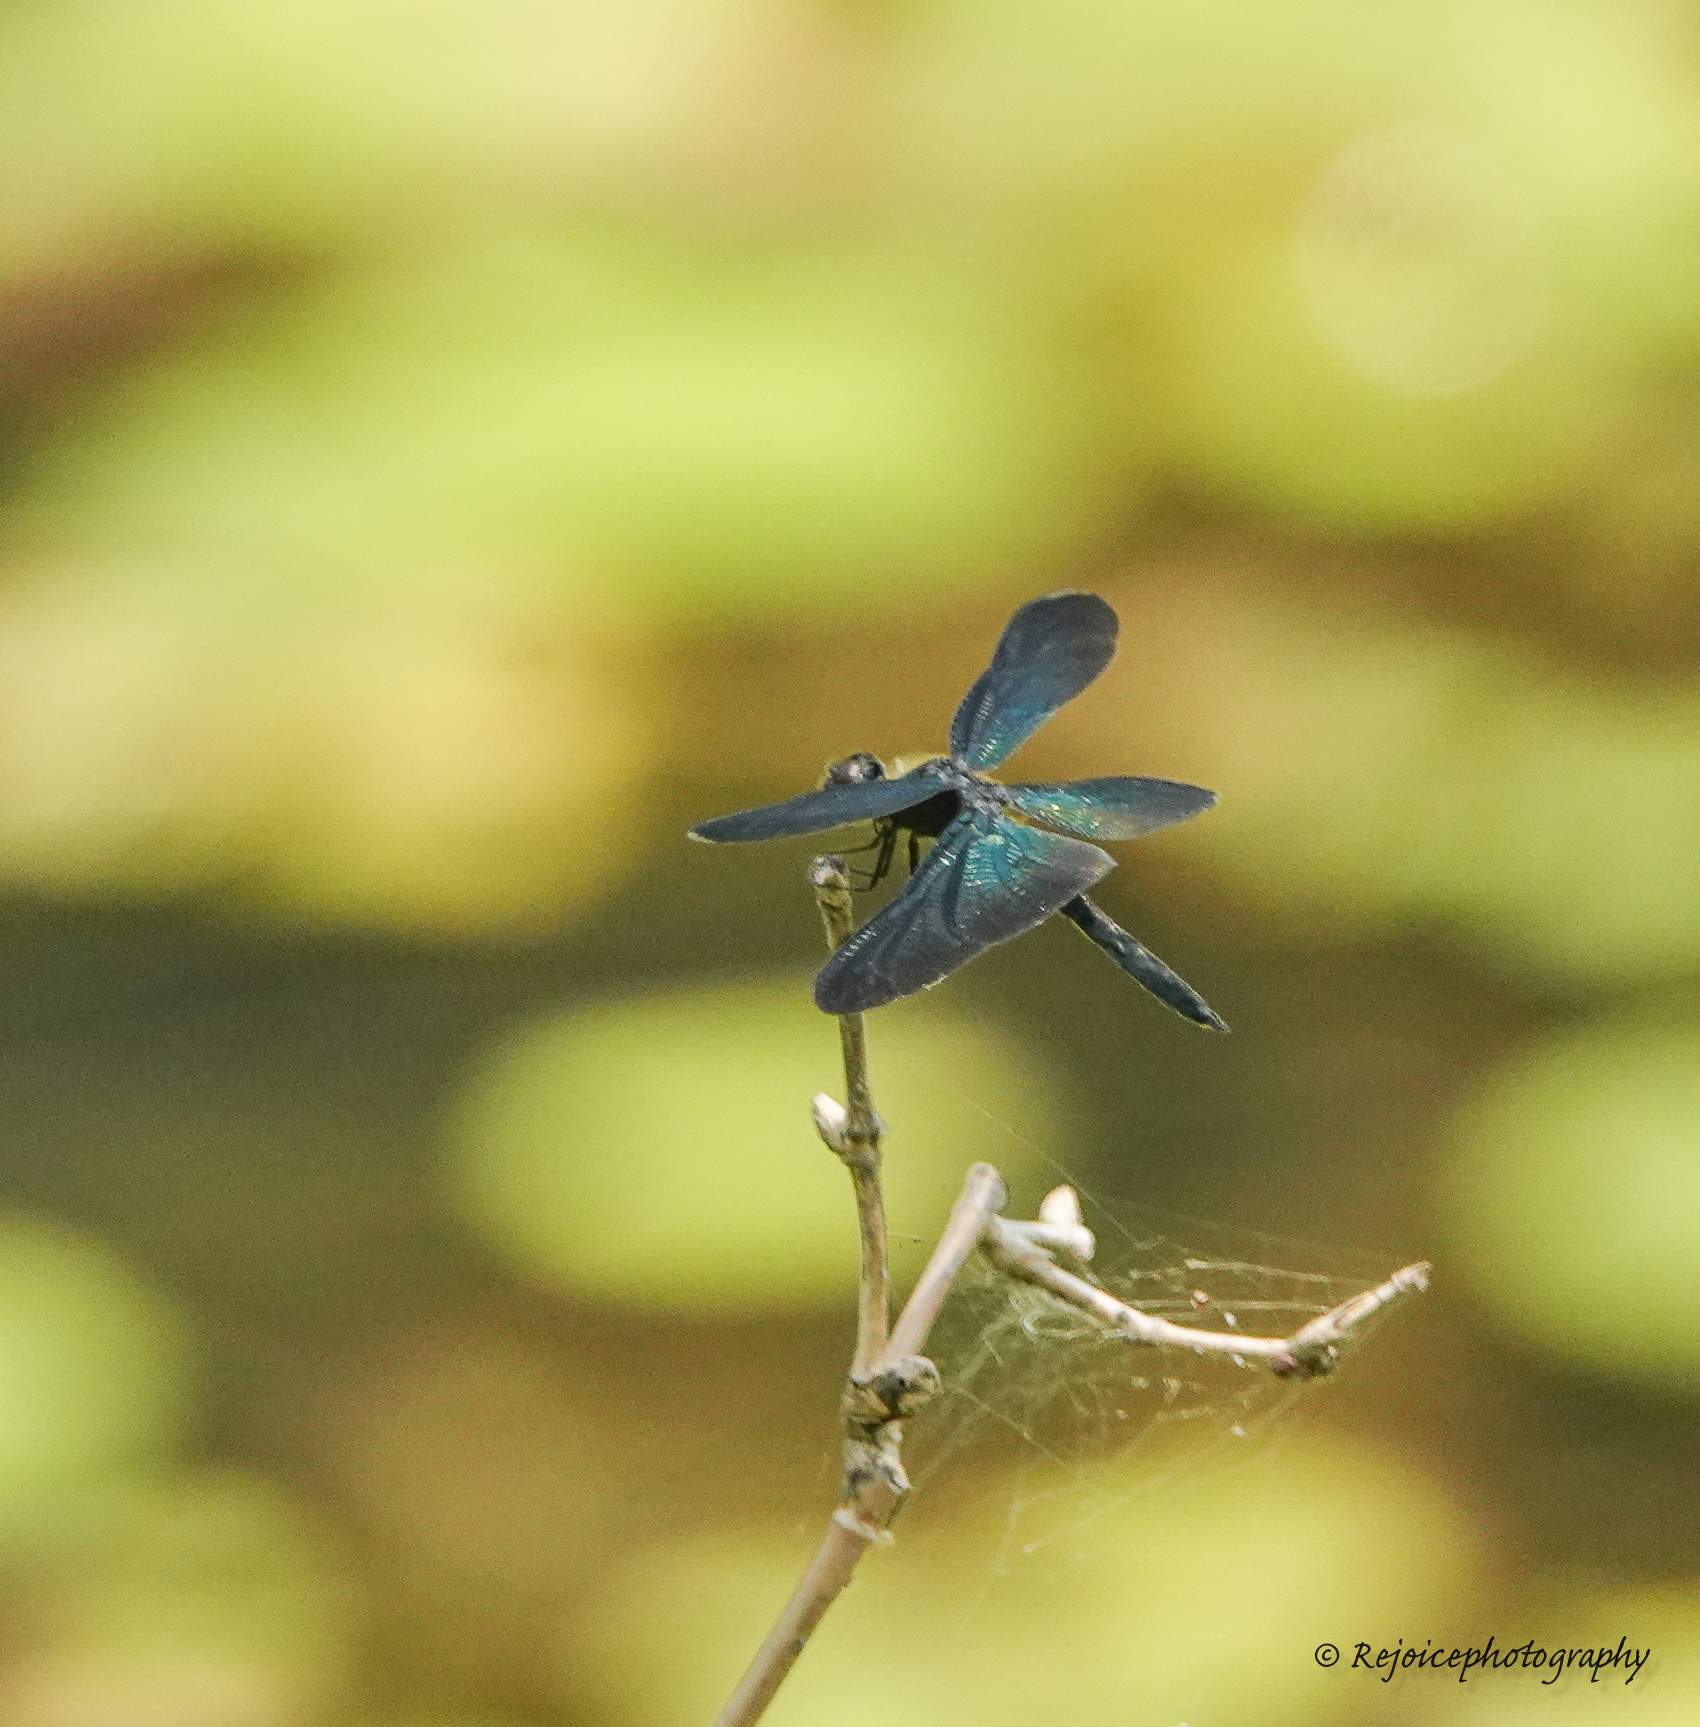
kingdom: Animalia
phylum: Arthropoda
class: Insecta
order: Odonata
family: Libellulidae
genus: Rhyothemis
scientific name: Rhyothemis plutonia
